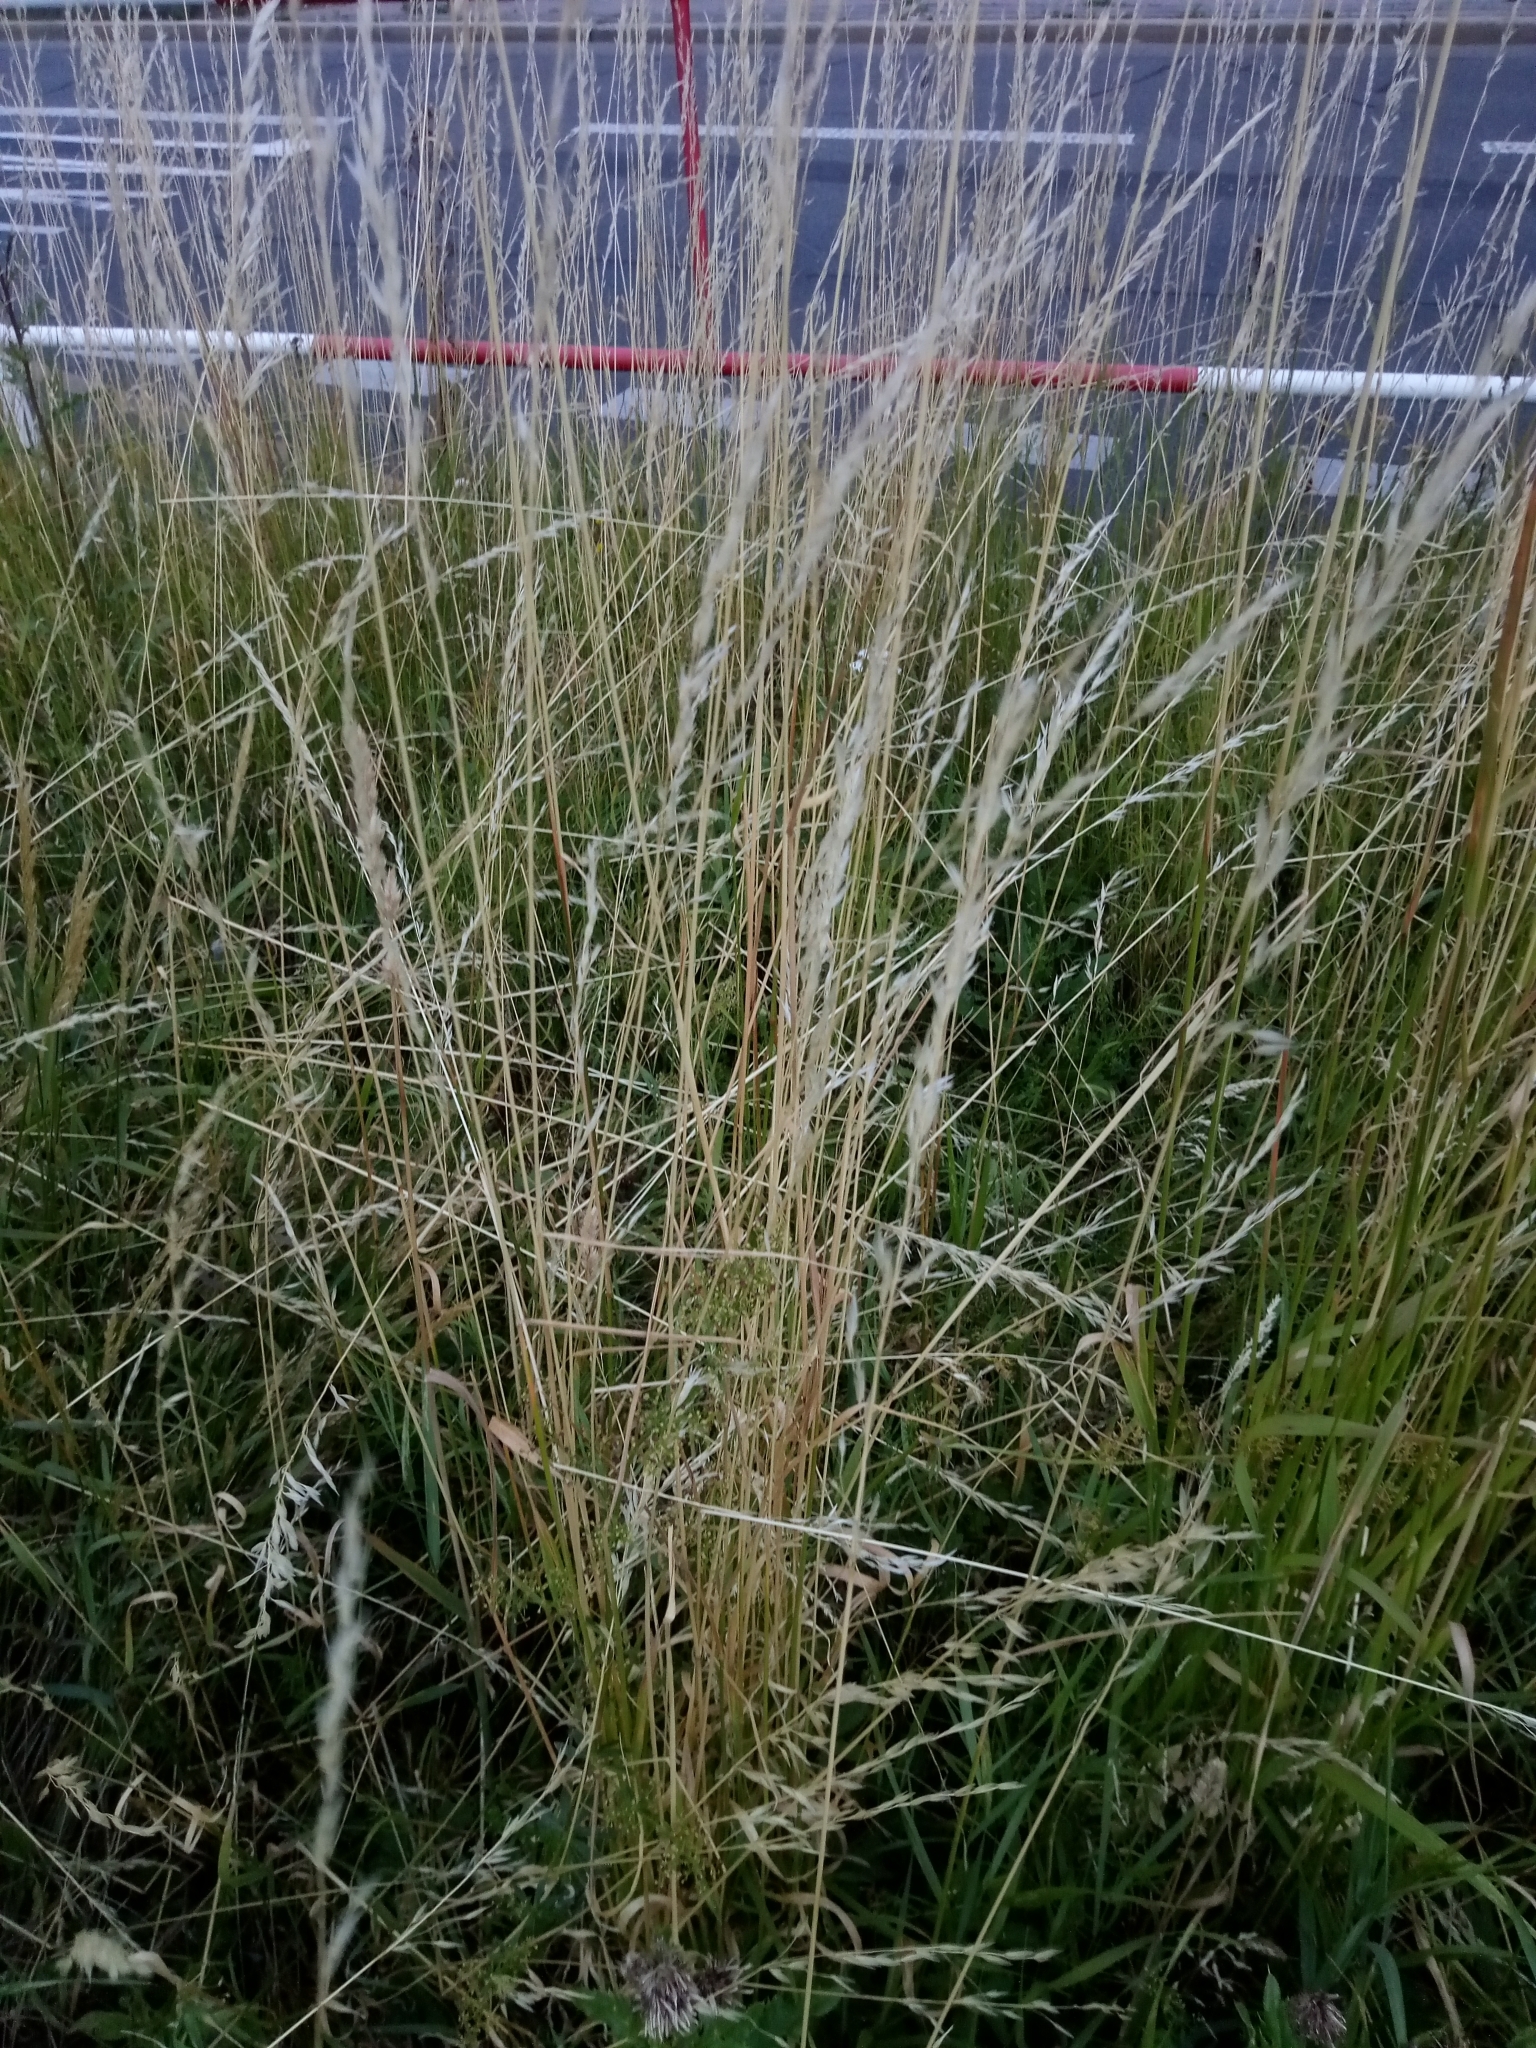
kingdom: Plantae
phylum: Tracheophyta
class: Liliopsida
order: Poales
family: Poaceae
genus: Arrhenatherum
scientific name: Arrhenatherum elatius
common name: Tall oatgrass
